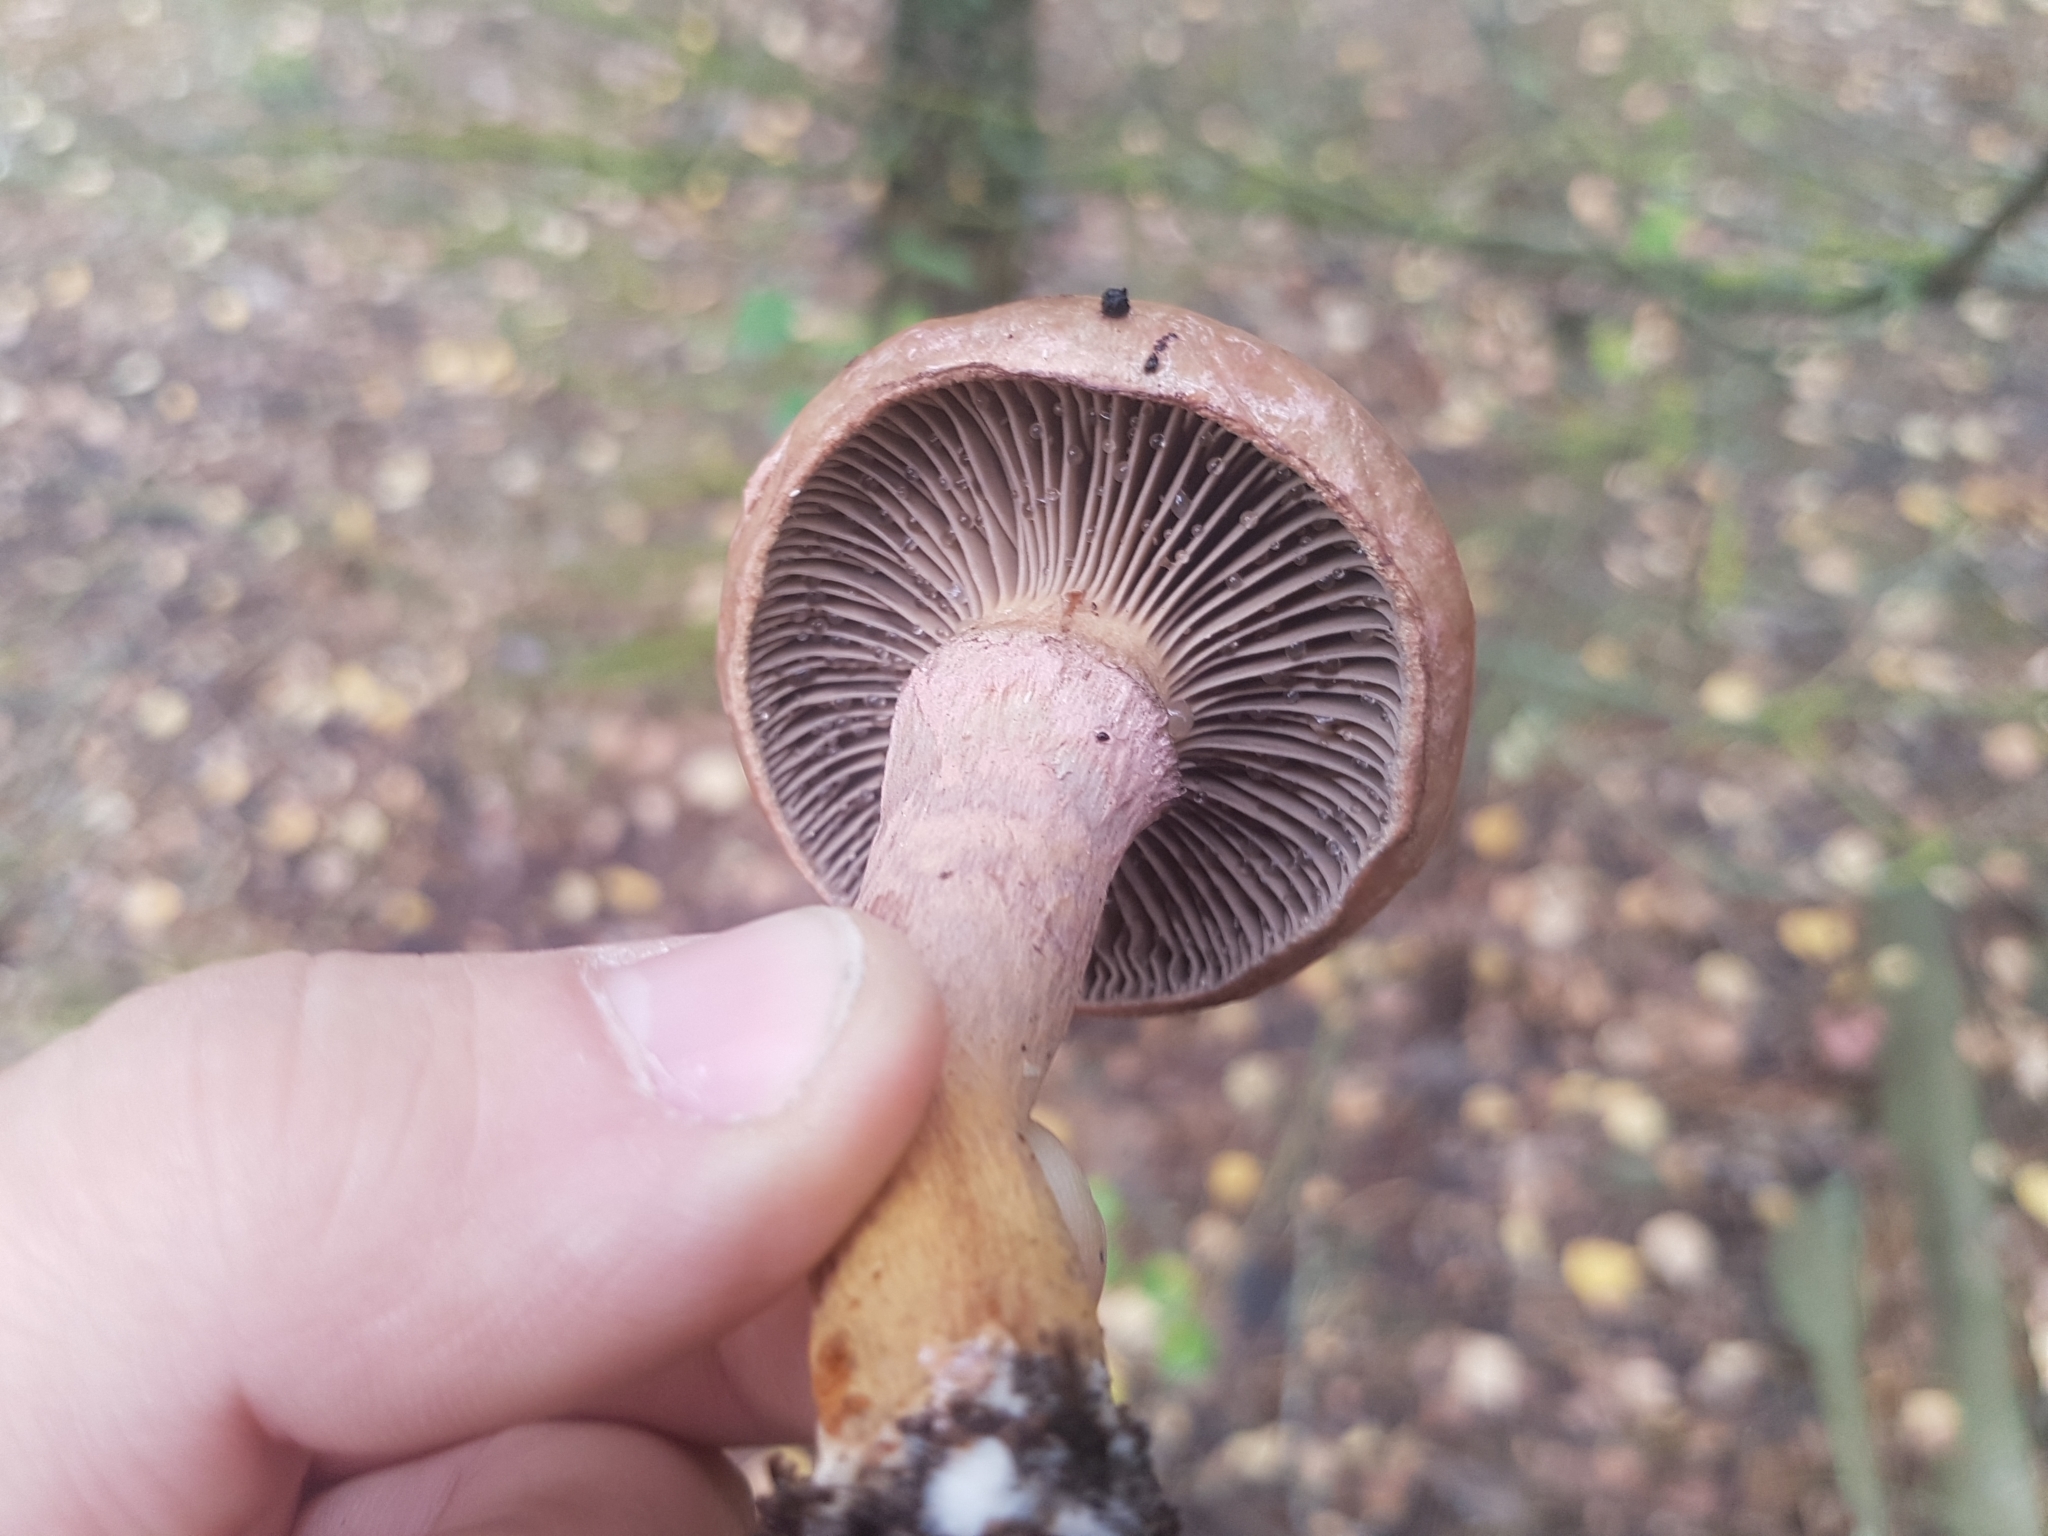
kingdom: Fungi
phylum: Basidiomycota
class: Agaricomycetes
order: Boletales
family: Gomphidiaceae
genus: Chroogomphus
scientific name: Chroogomphus rutilus
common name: Copper spike
